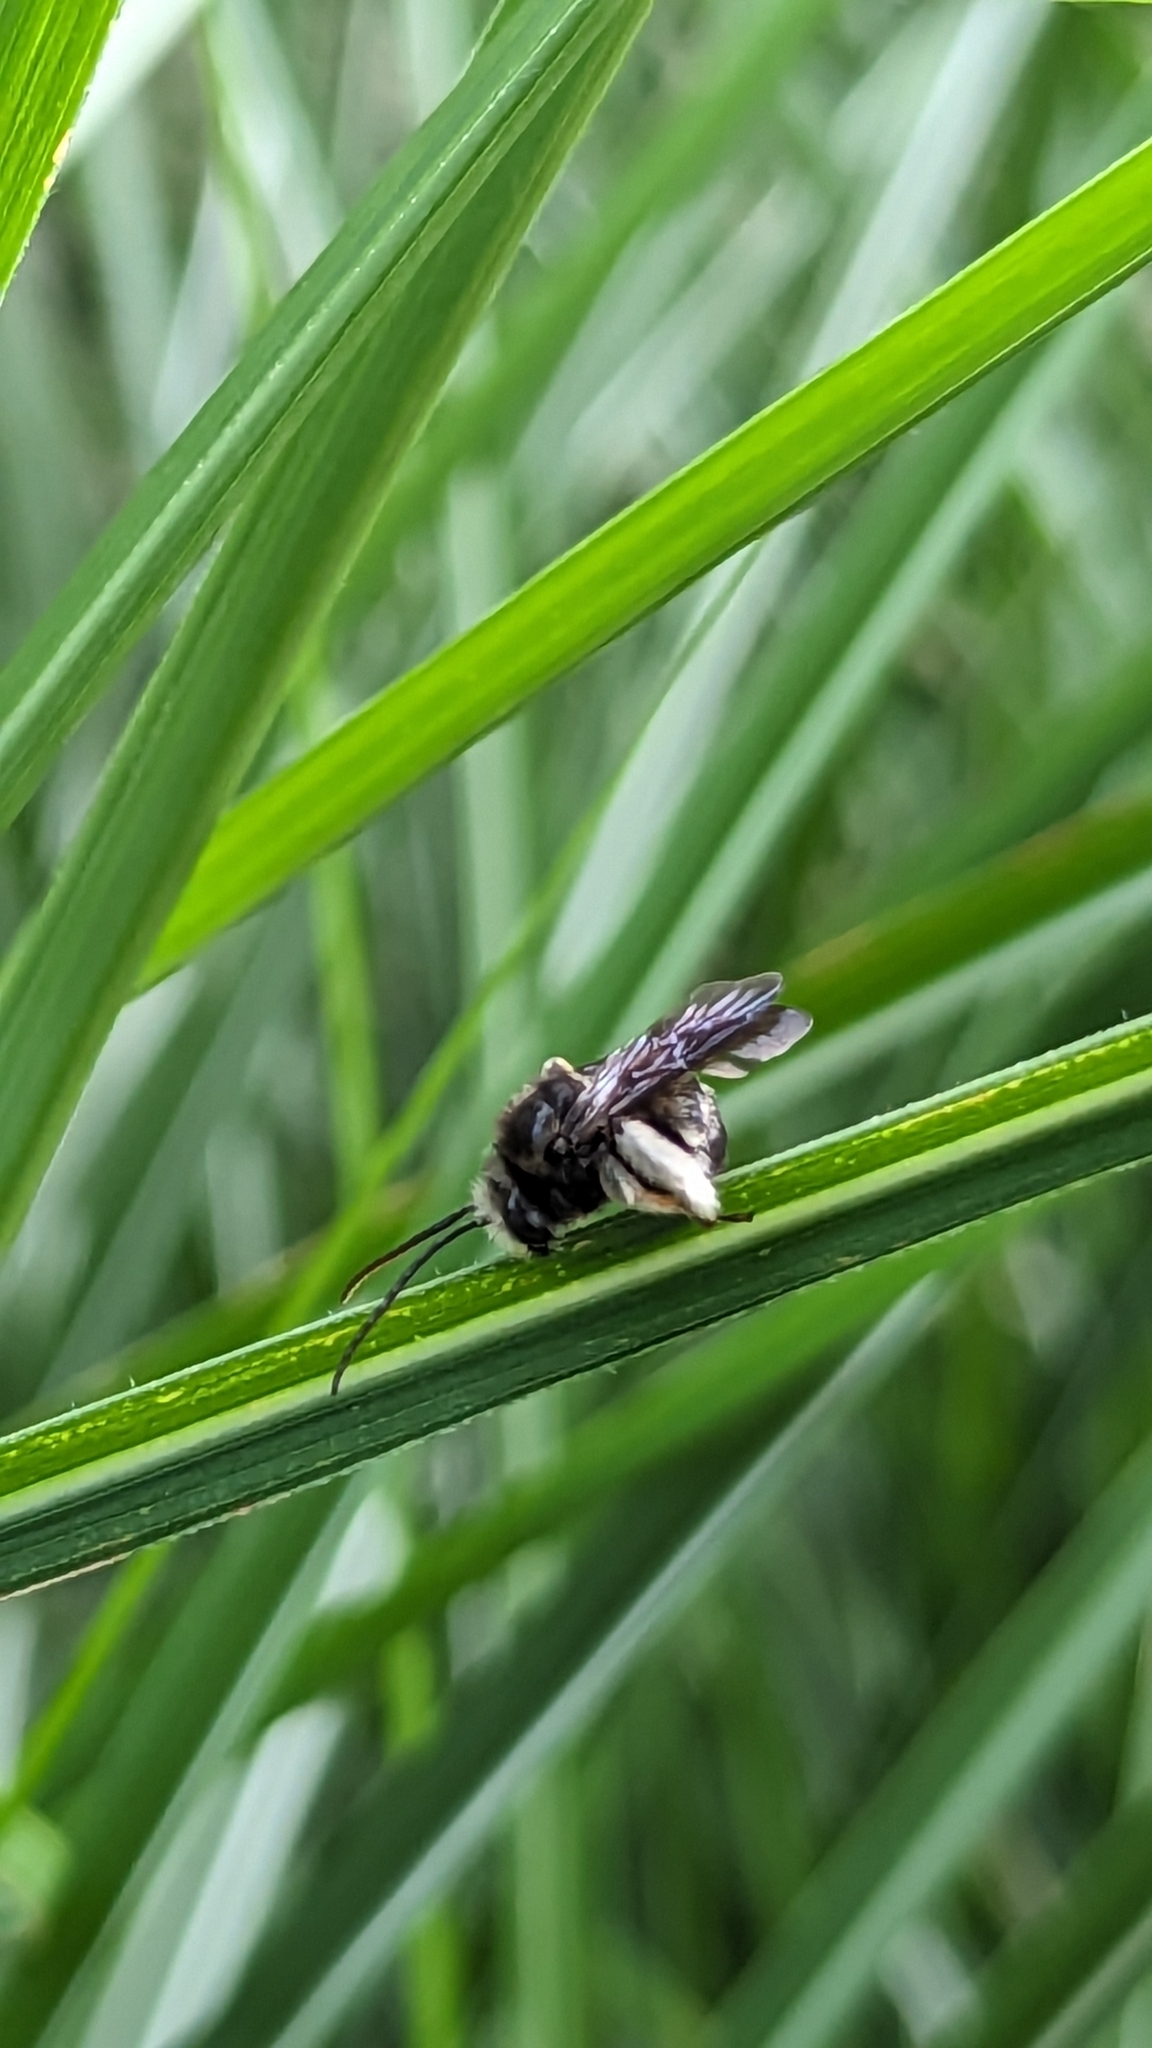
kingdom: Animalia
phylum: Arthropoda
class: Insecta
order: Hymenoptera
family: Apidae
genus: Melissodes
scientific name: Melissodes bimaculatus
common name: Two-spotted long-horned bee
